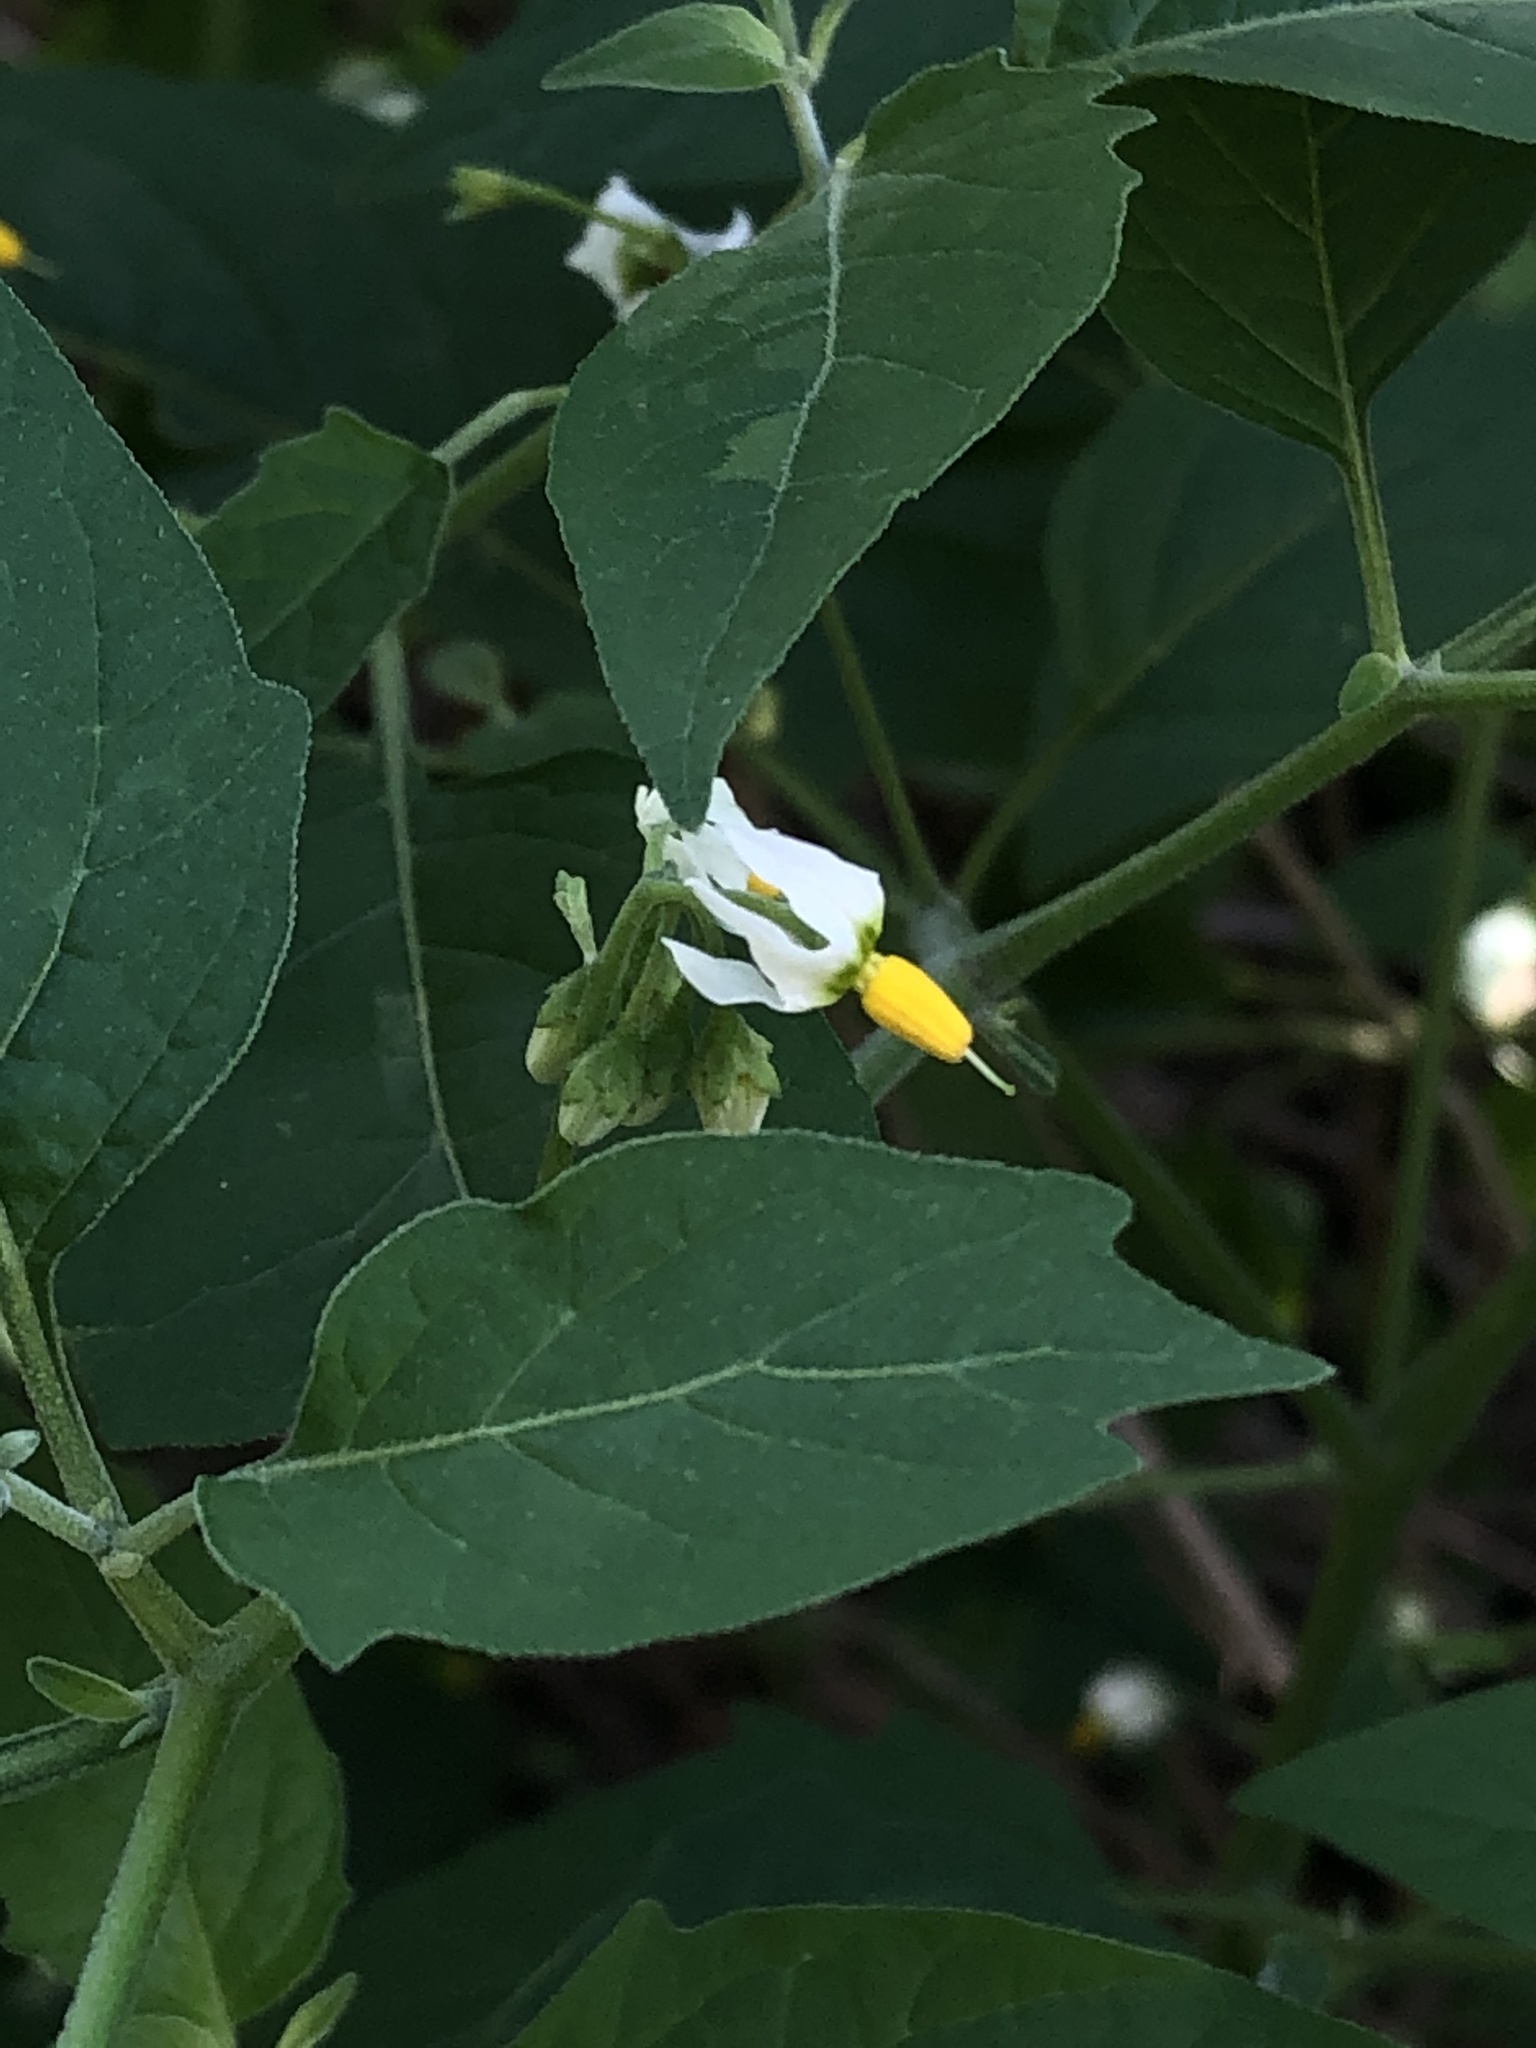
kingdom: Plantae
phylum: Tracheophyta
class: Magnoliopsida
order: Solanales
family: Solanaceae
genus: Solanum
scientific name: Solanum douglasii
